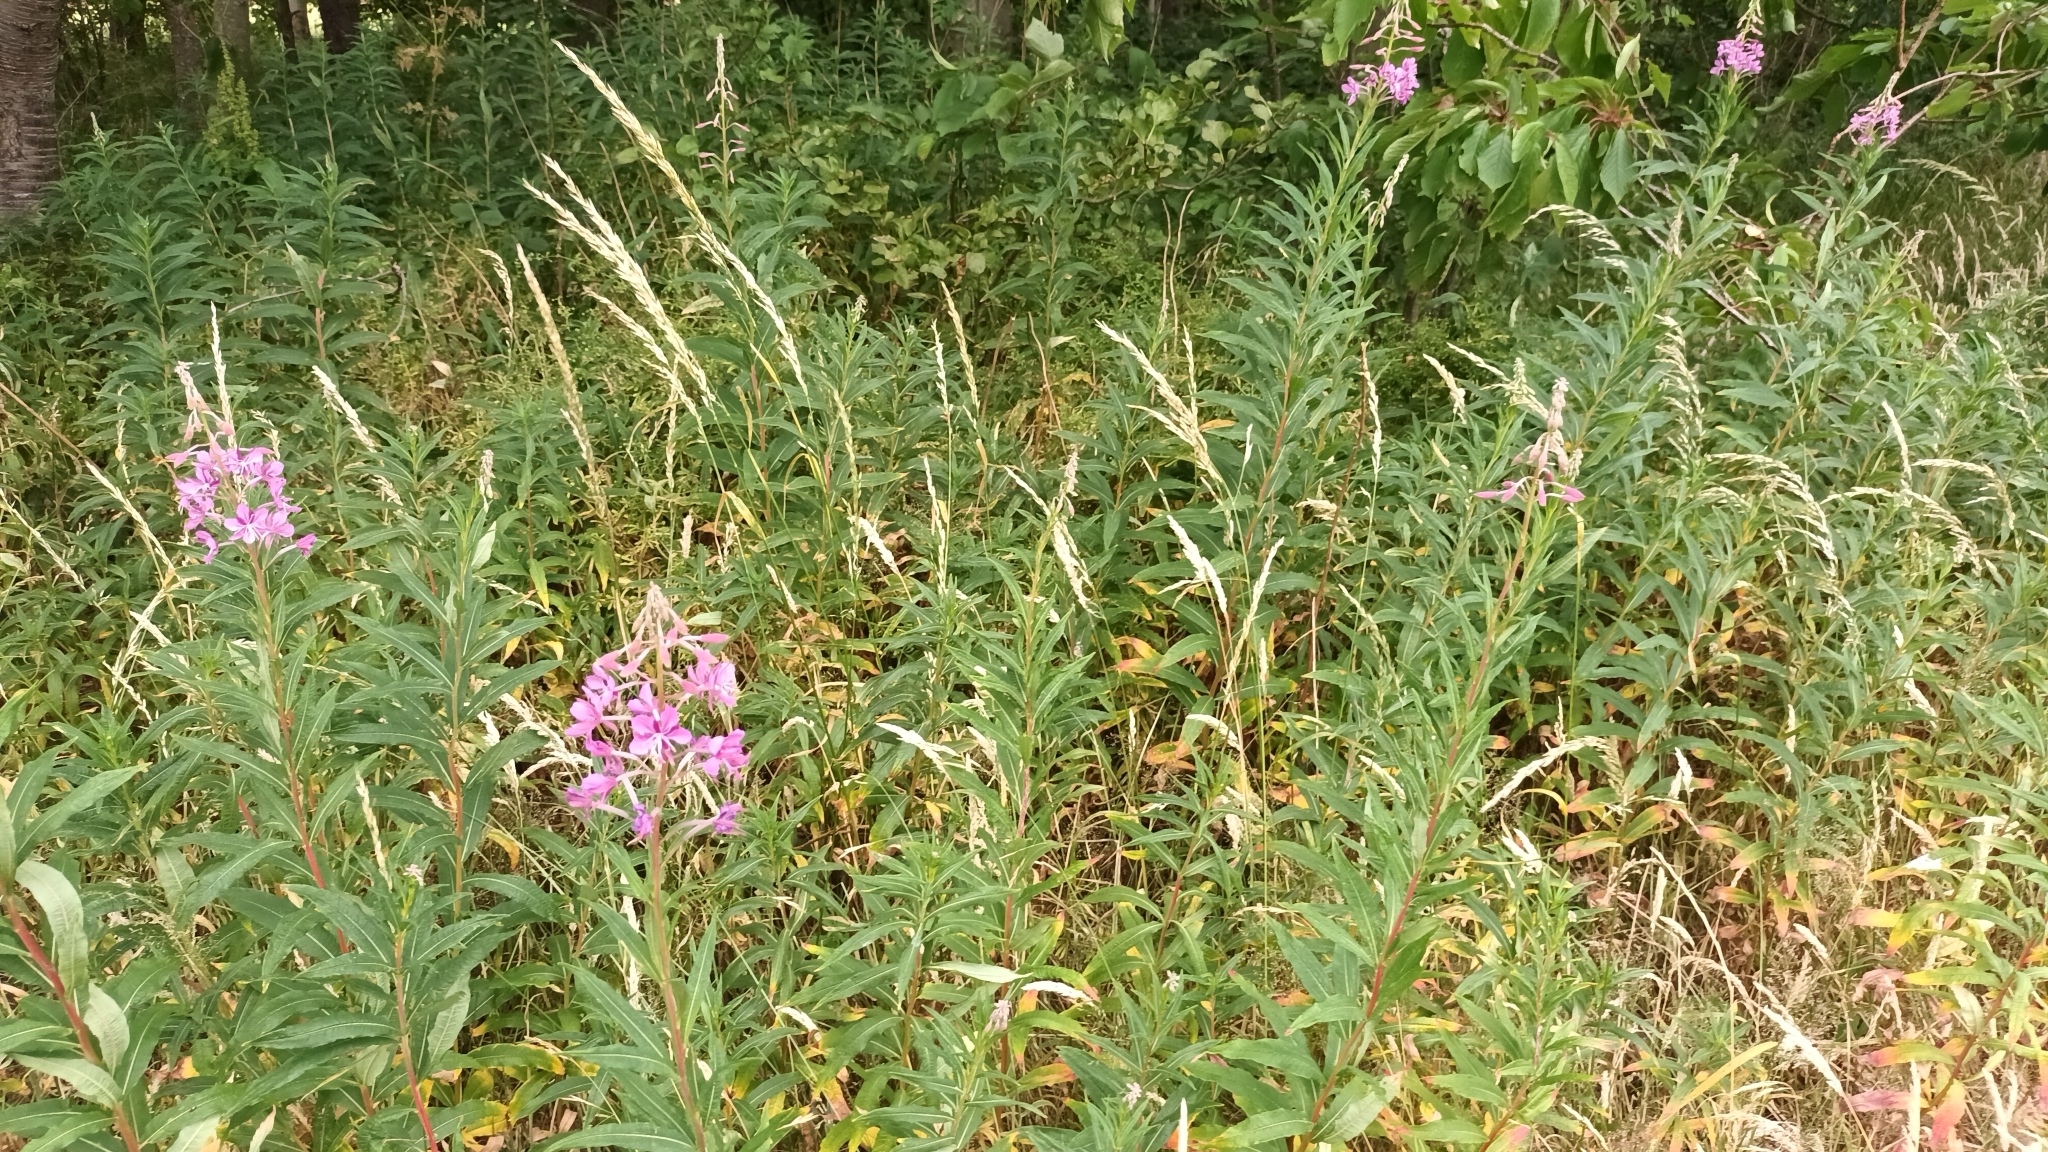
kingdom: Plantae
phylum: Tracheophyta
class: Magnoliopsida
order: Myrtales
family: Onagraceae
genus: Chamaenerion
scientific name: Chamaenerion angustifolium
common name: Fireweed
